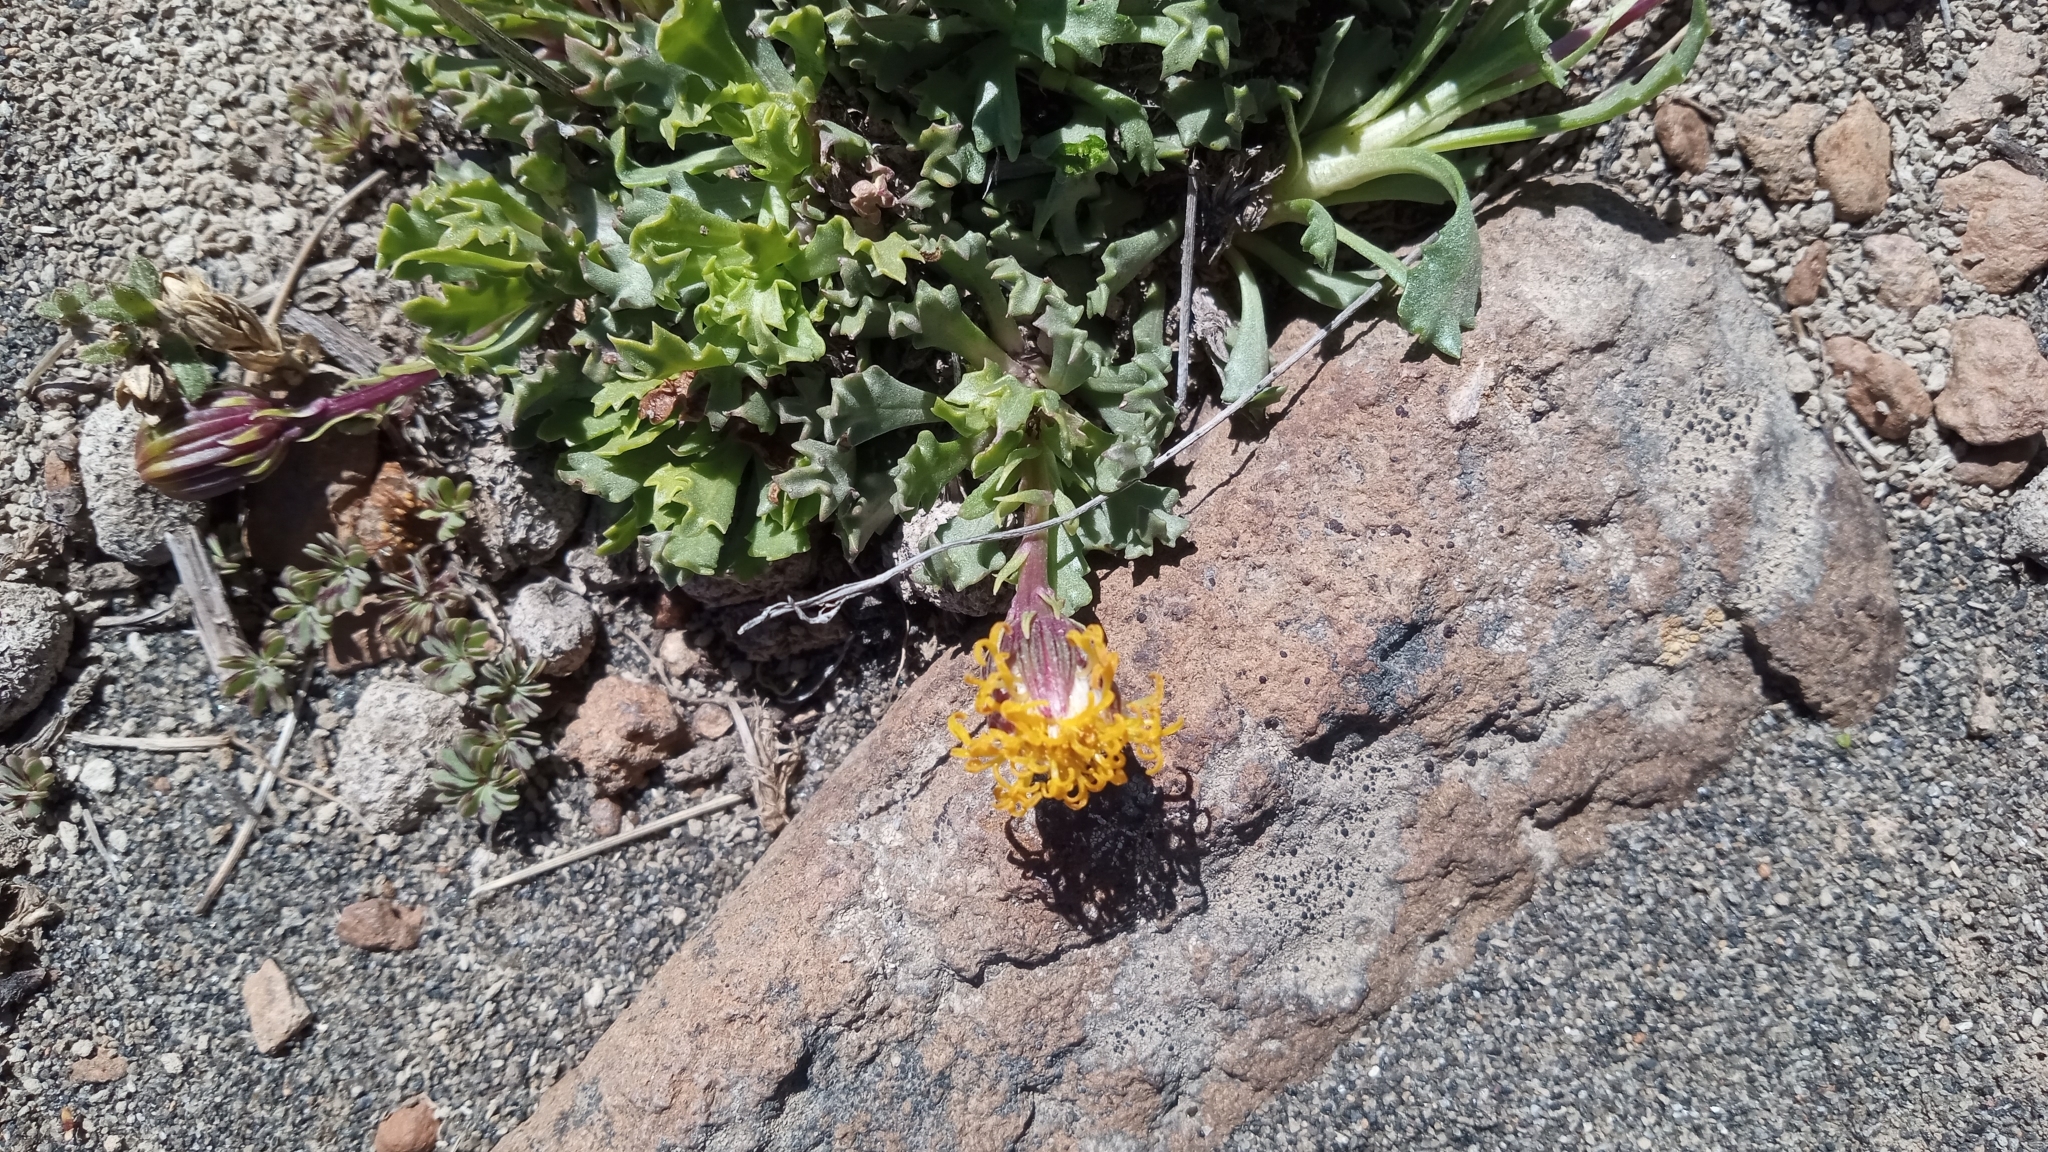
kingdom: Plantae
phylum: Tracheophyta
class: Magnoliopsida
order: Asterales
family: Asteraceae
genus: Senecio
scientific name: Senecio kingii
